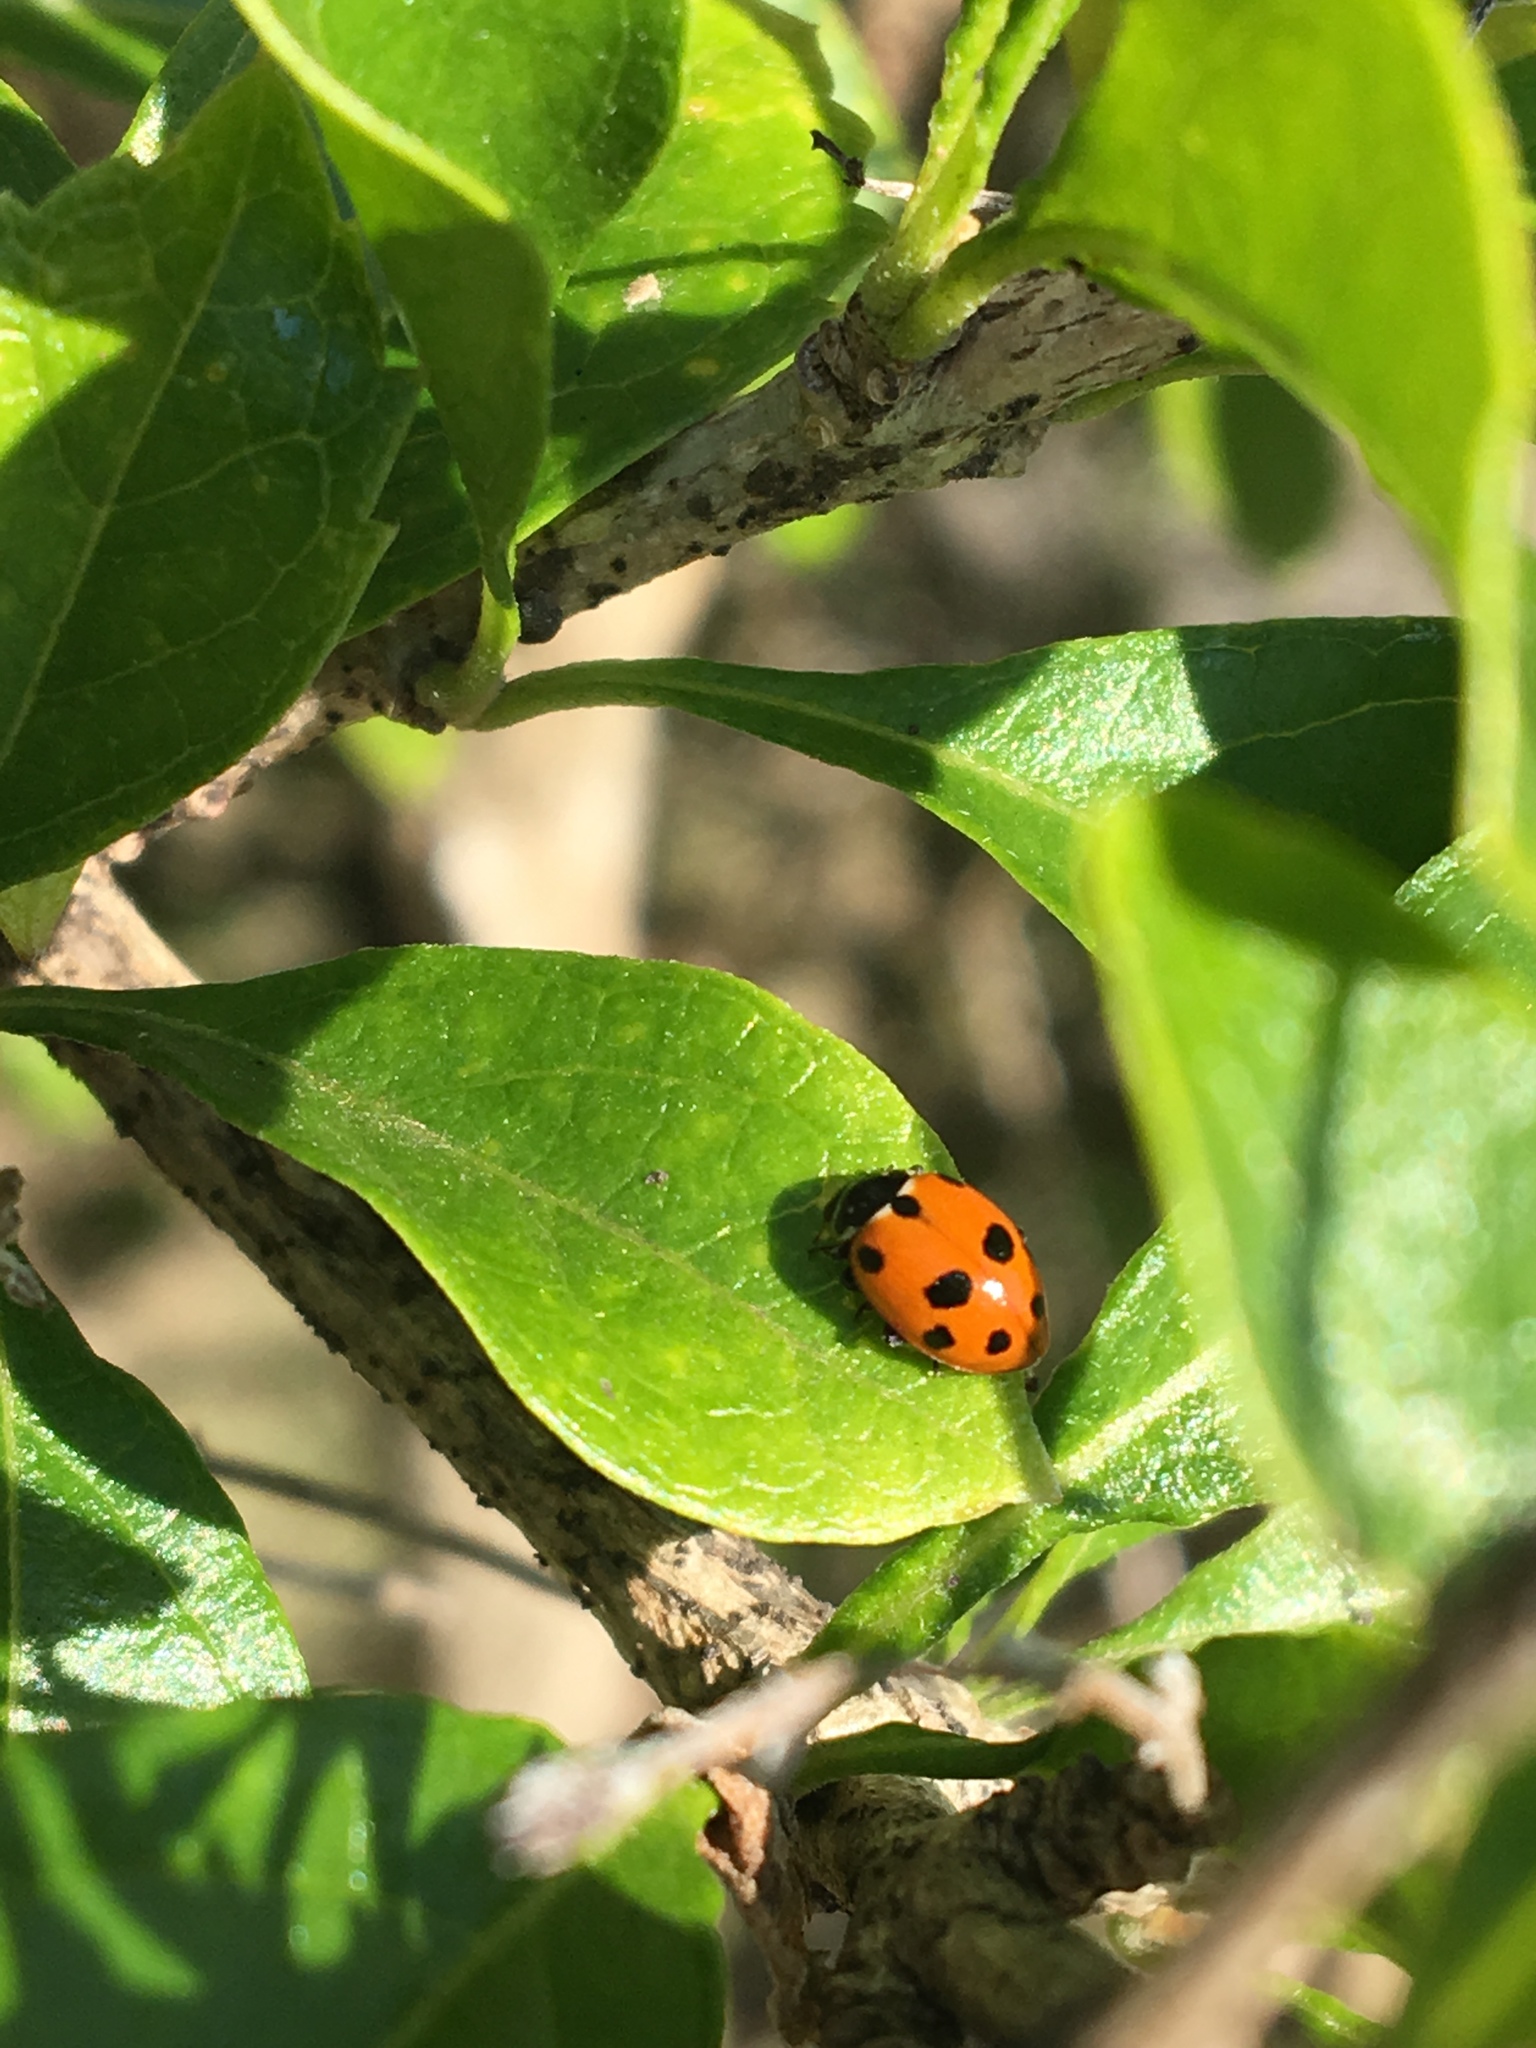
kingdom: Animalia
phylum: Arthropoda
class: Insecta
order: Coleoptera
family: Coccinellidae
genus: Hippodamia
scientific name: Hippodamia variegata
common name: Ladybird beetle
